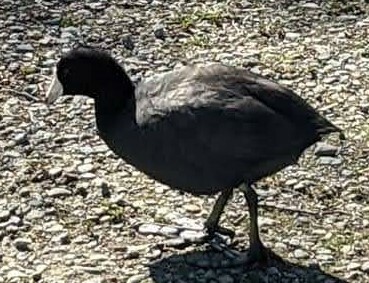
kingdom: Animalia
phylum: Chordata
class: Aves
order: Gruiformes
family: Rallidae
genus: Fulica
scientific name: Fulica americana
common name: American coot
